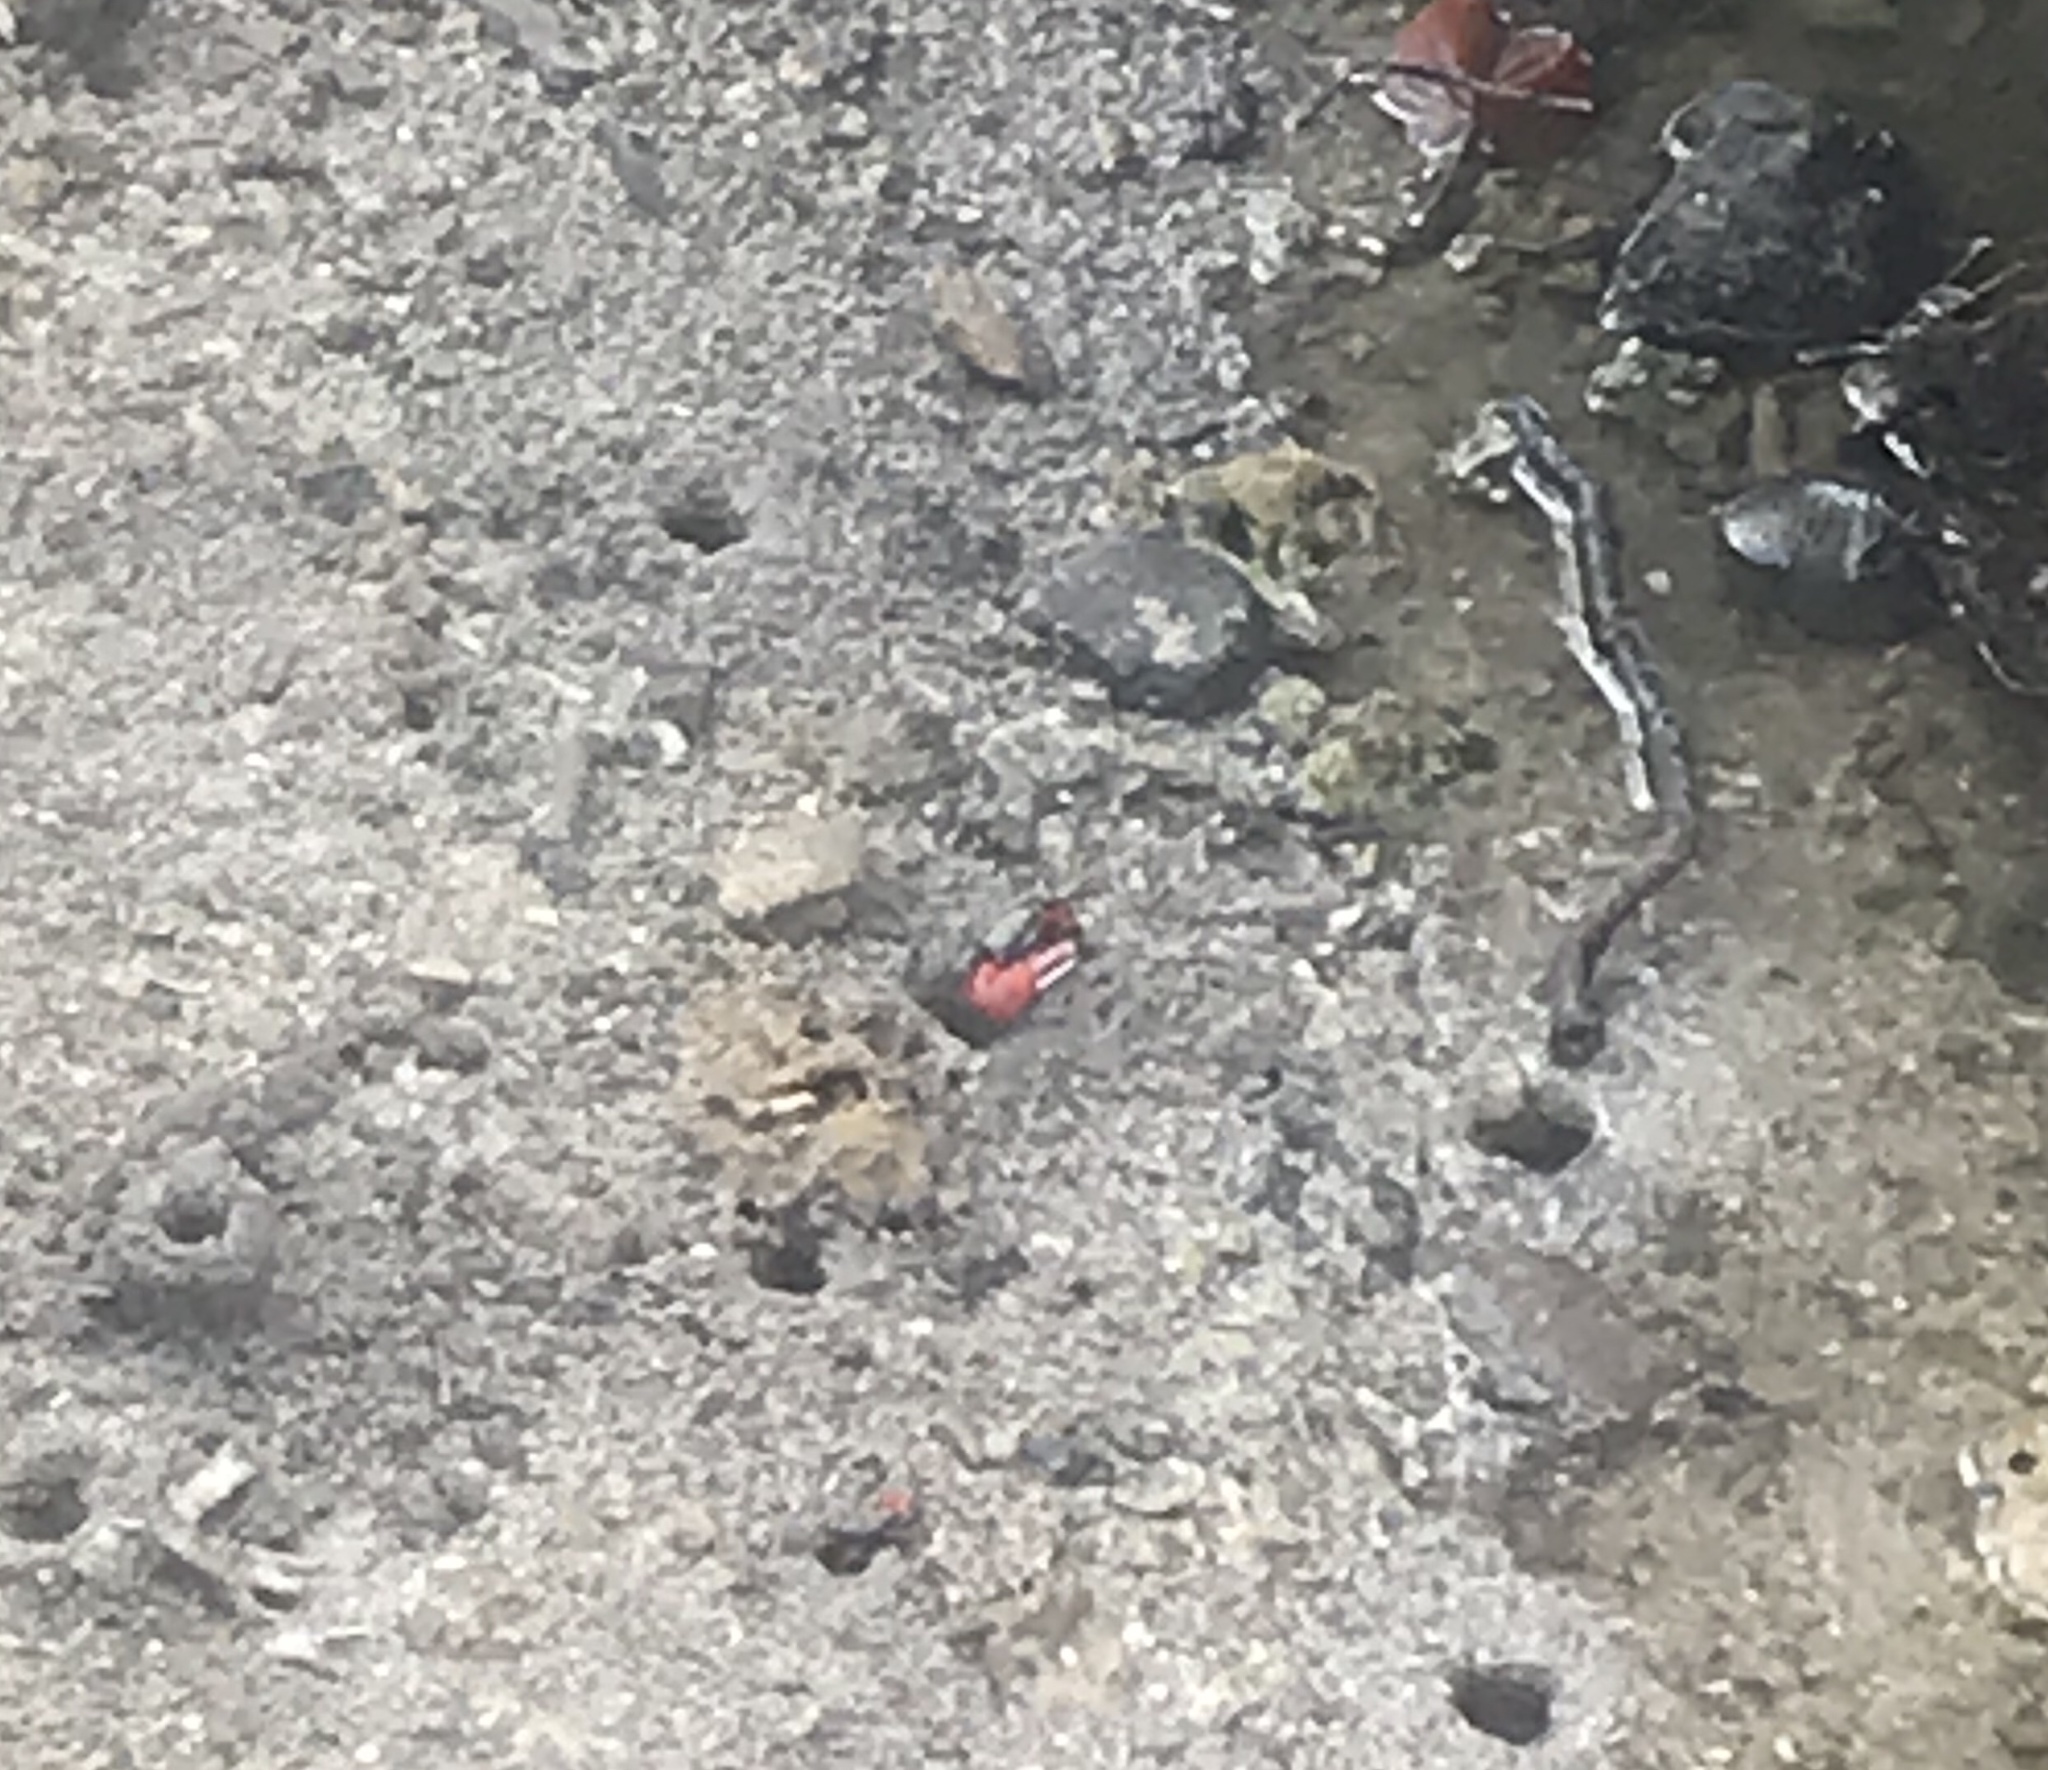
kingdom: Animalia
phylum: Arthropoda
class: Malacostraca
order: Decapoda
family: Ocypodidae
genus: Paraleptuca
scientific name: Paraleptuca crassipes
